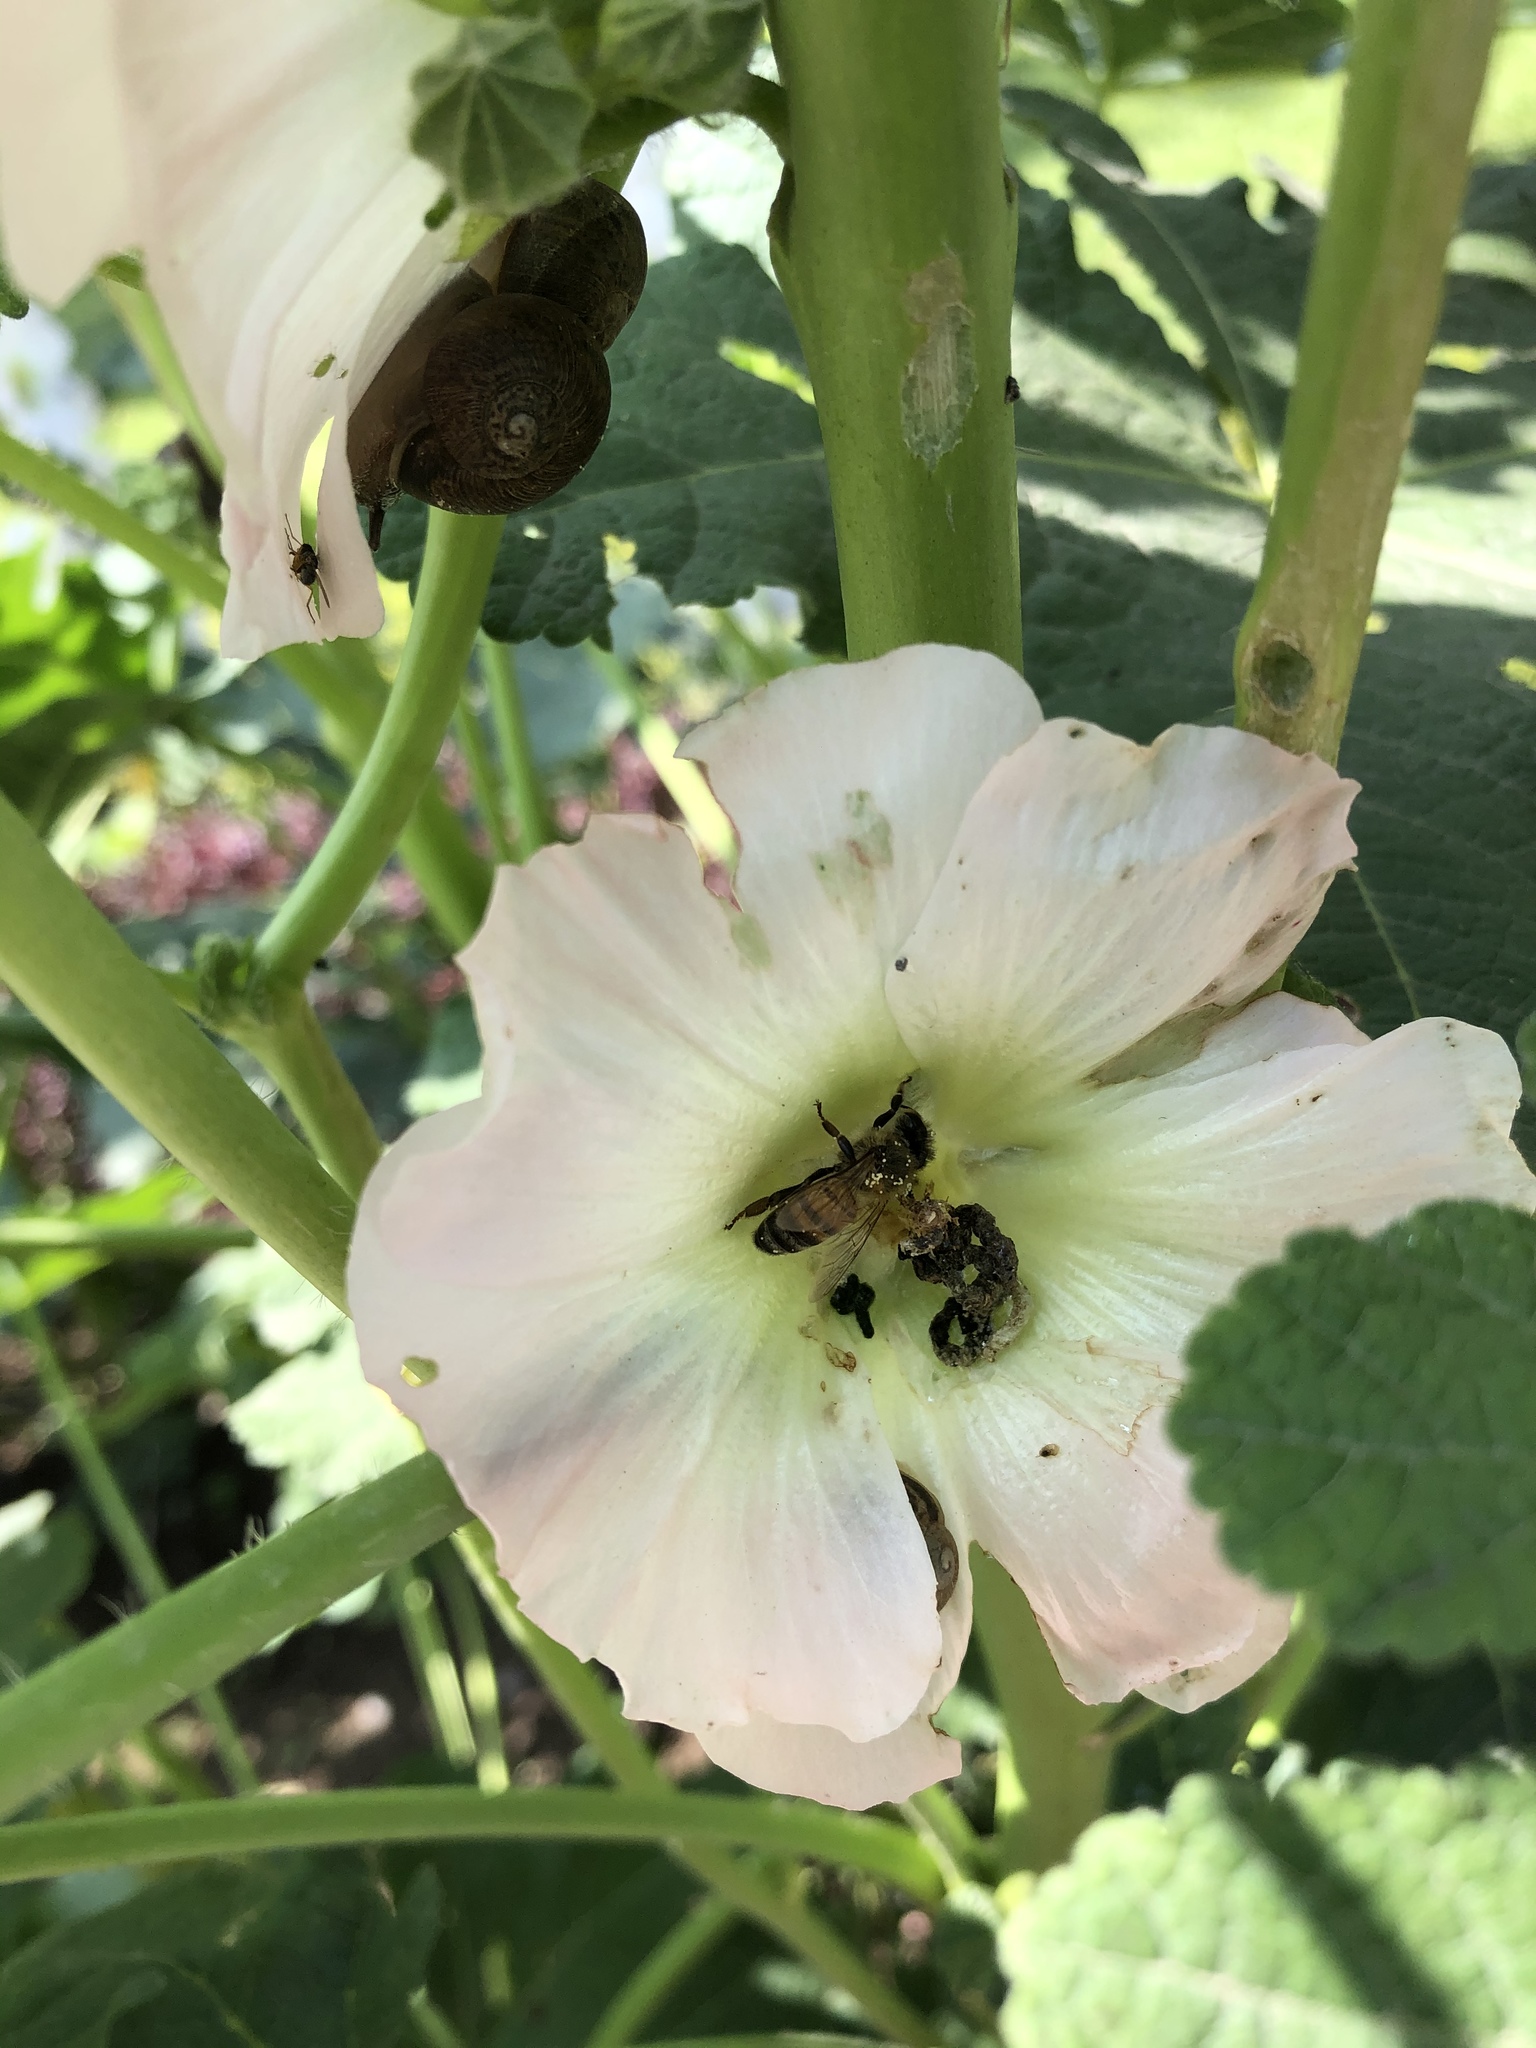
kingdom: Animalia
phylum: Arthropoda
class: Insecta
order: Hymenoptera
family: Apidae
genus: Apis
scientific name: Apis mellifera
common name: Honey bee
